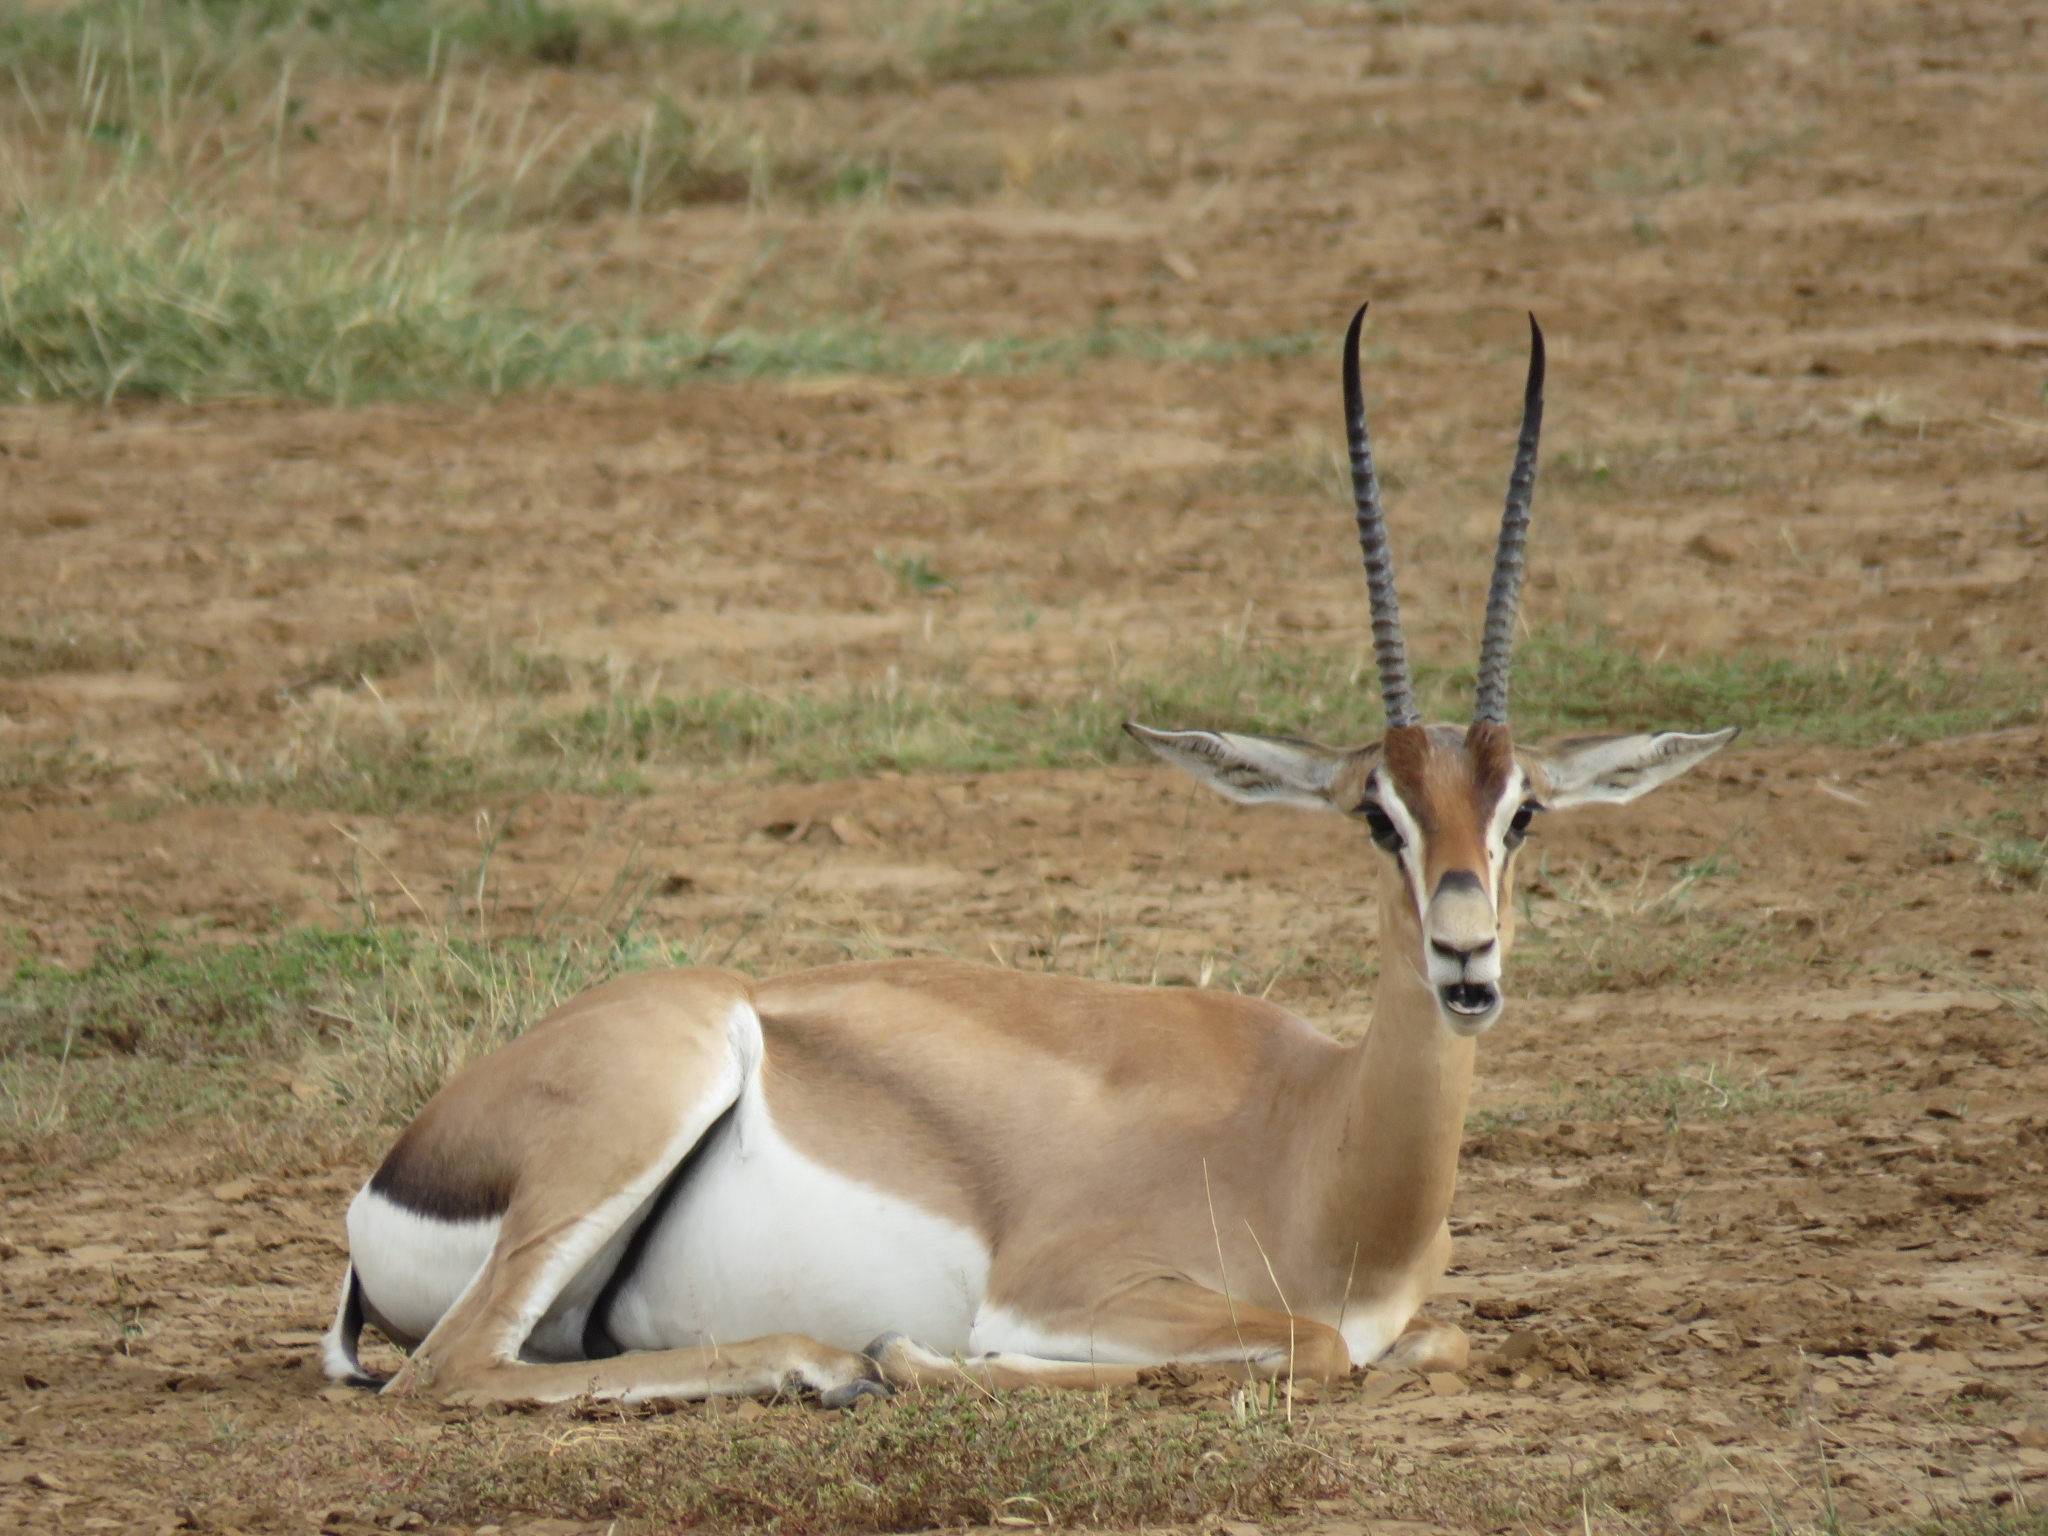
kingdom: Animalia
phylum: Chordata
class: Mammalia
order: Artiodactyla
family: Bovidae
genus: Nanger
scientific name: Nanger granti
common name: Grant's gazelle
